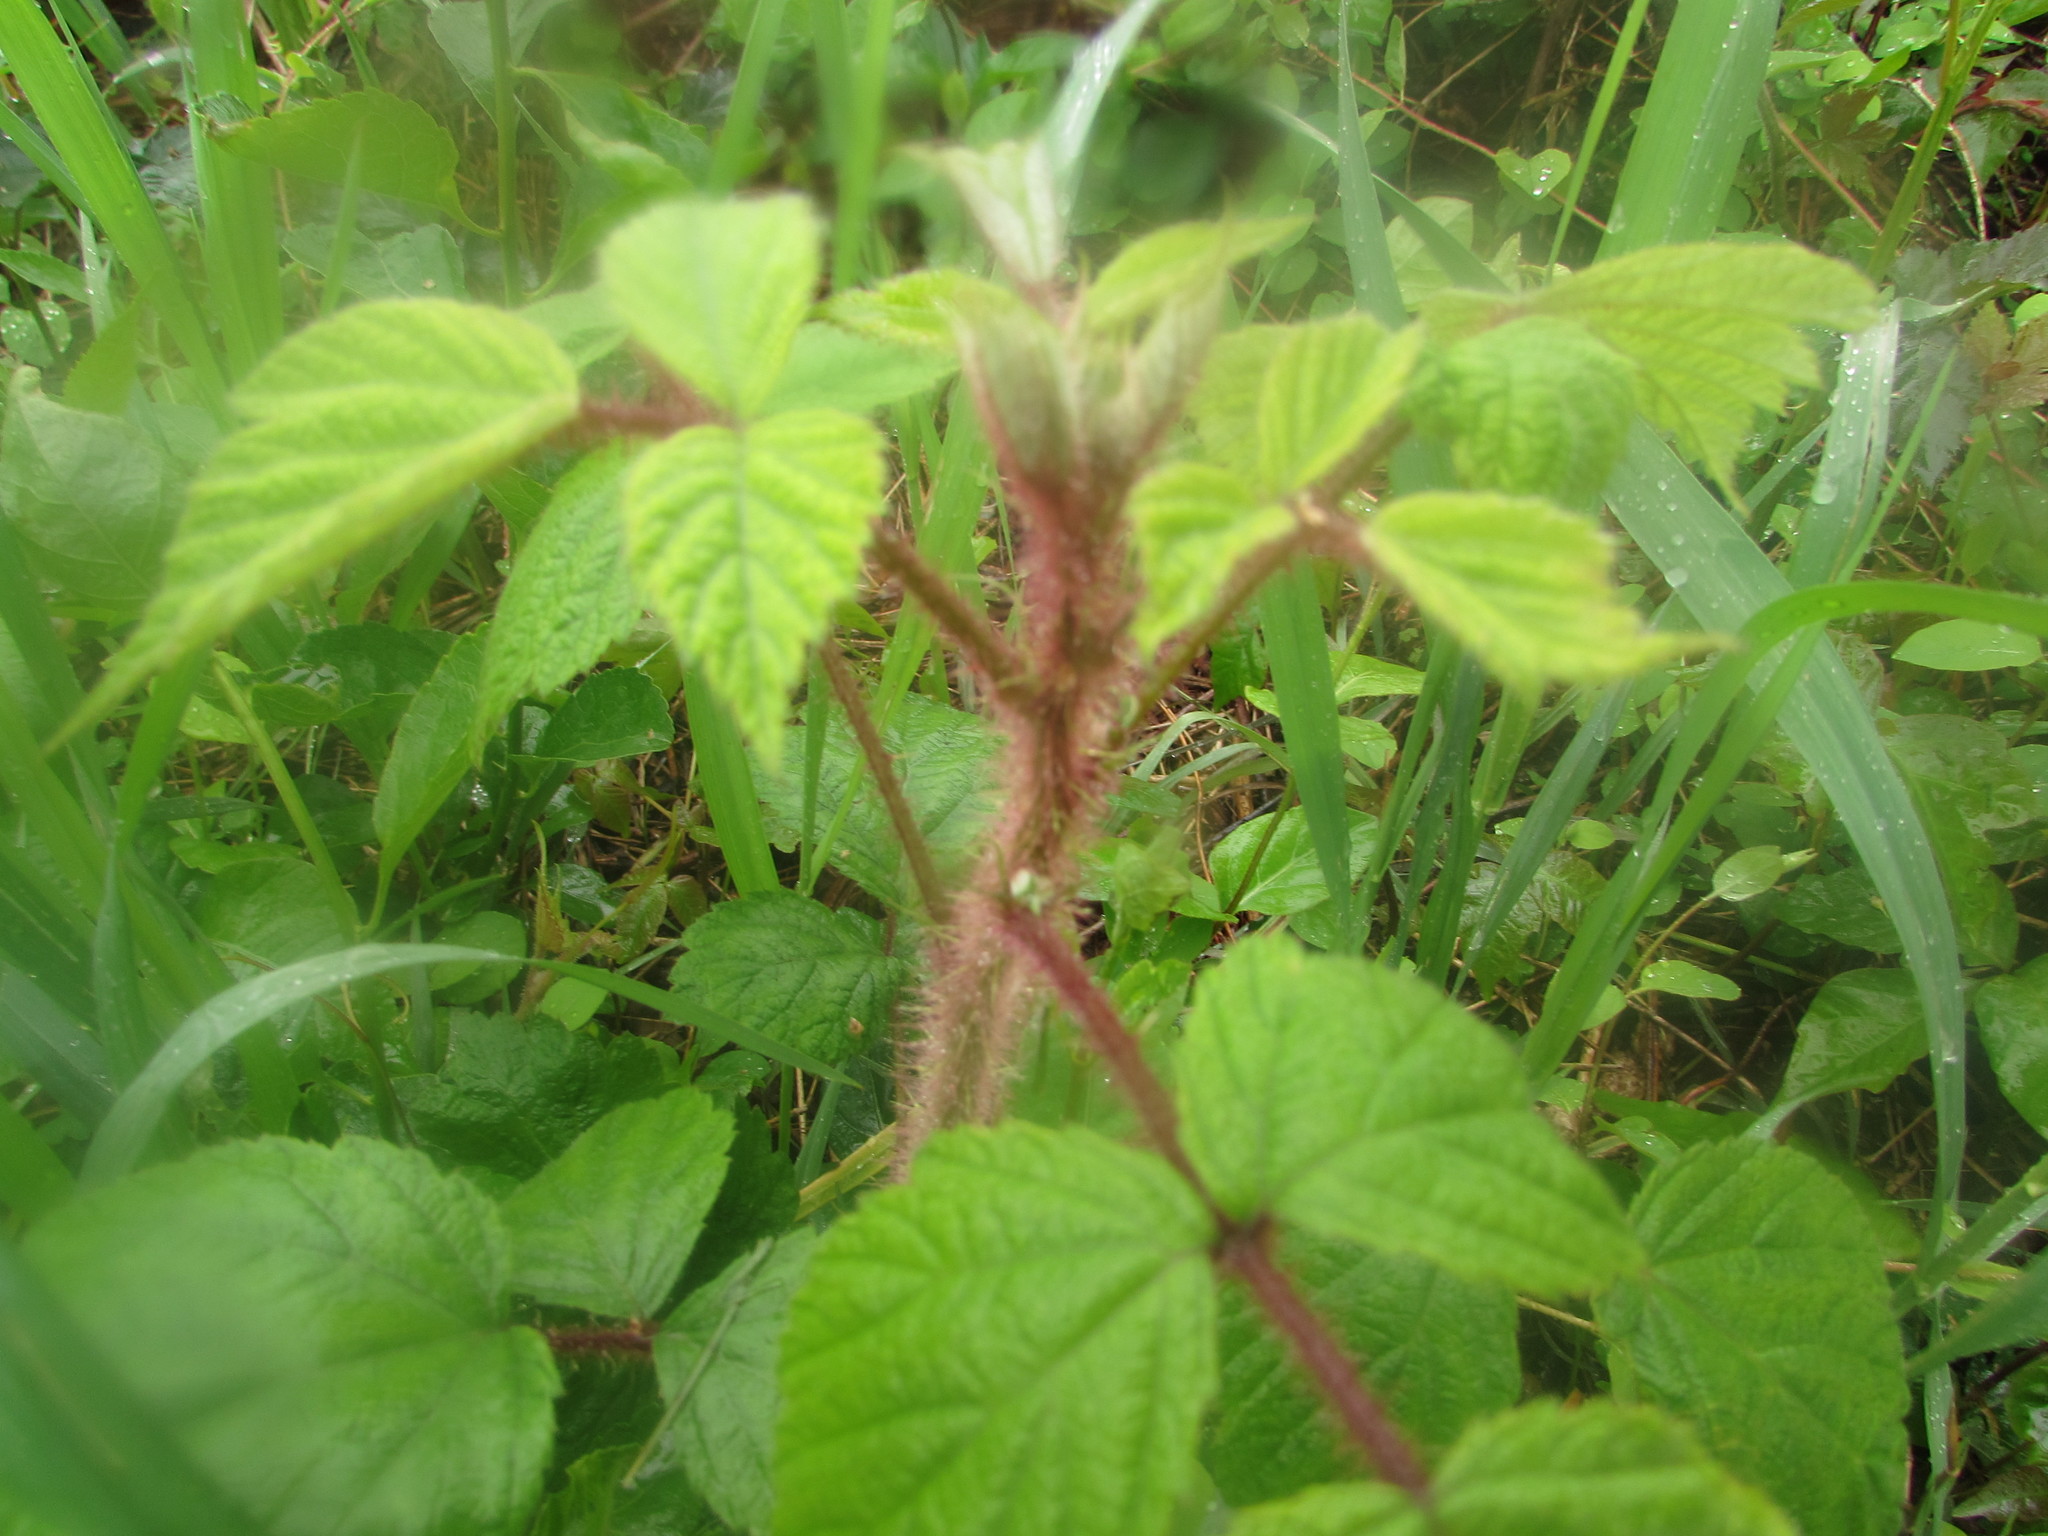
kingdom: Plantae
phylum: Tracheophyta
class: Magnoliopsida
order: Rosales
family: Rosaceae
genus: Rubus
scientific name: Rubus phoenicolasius
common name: Japanese wineberry
